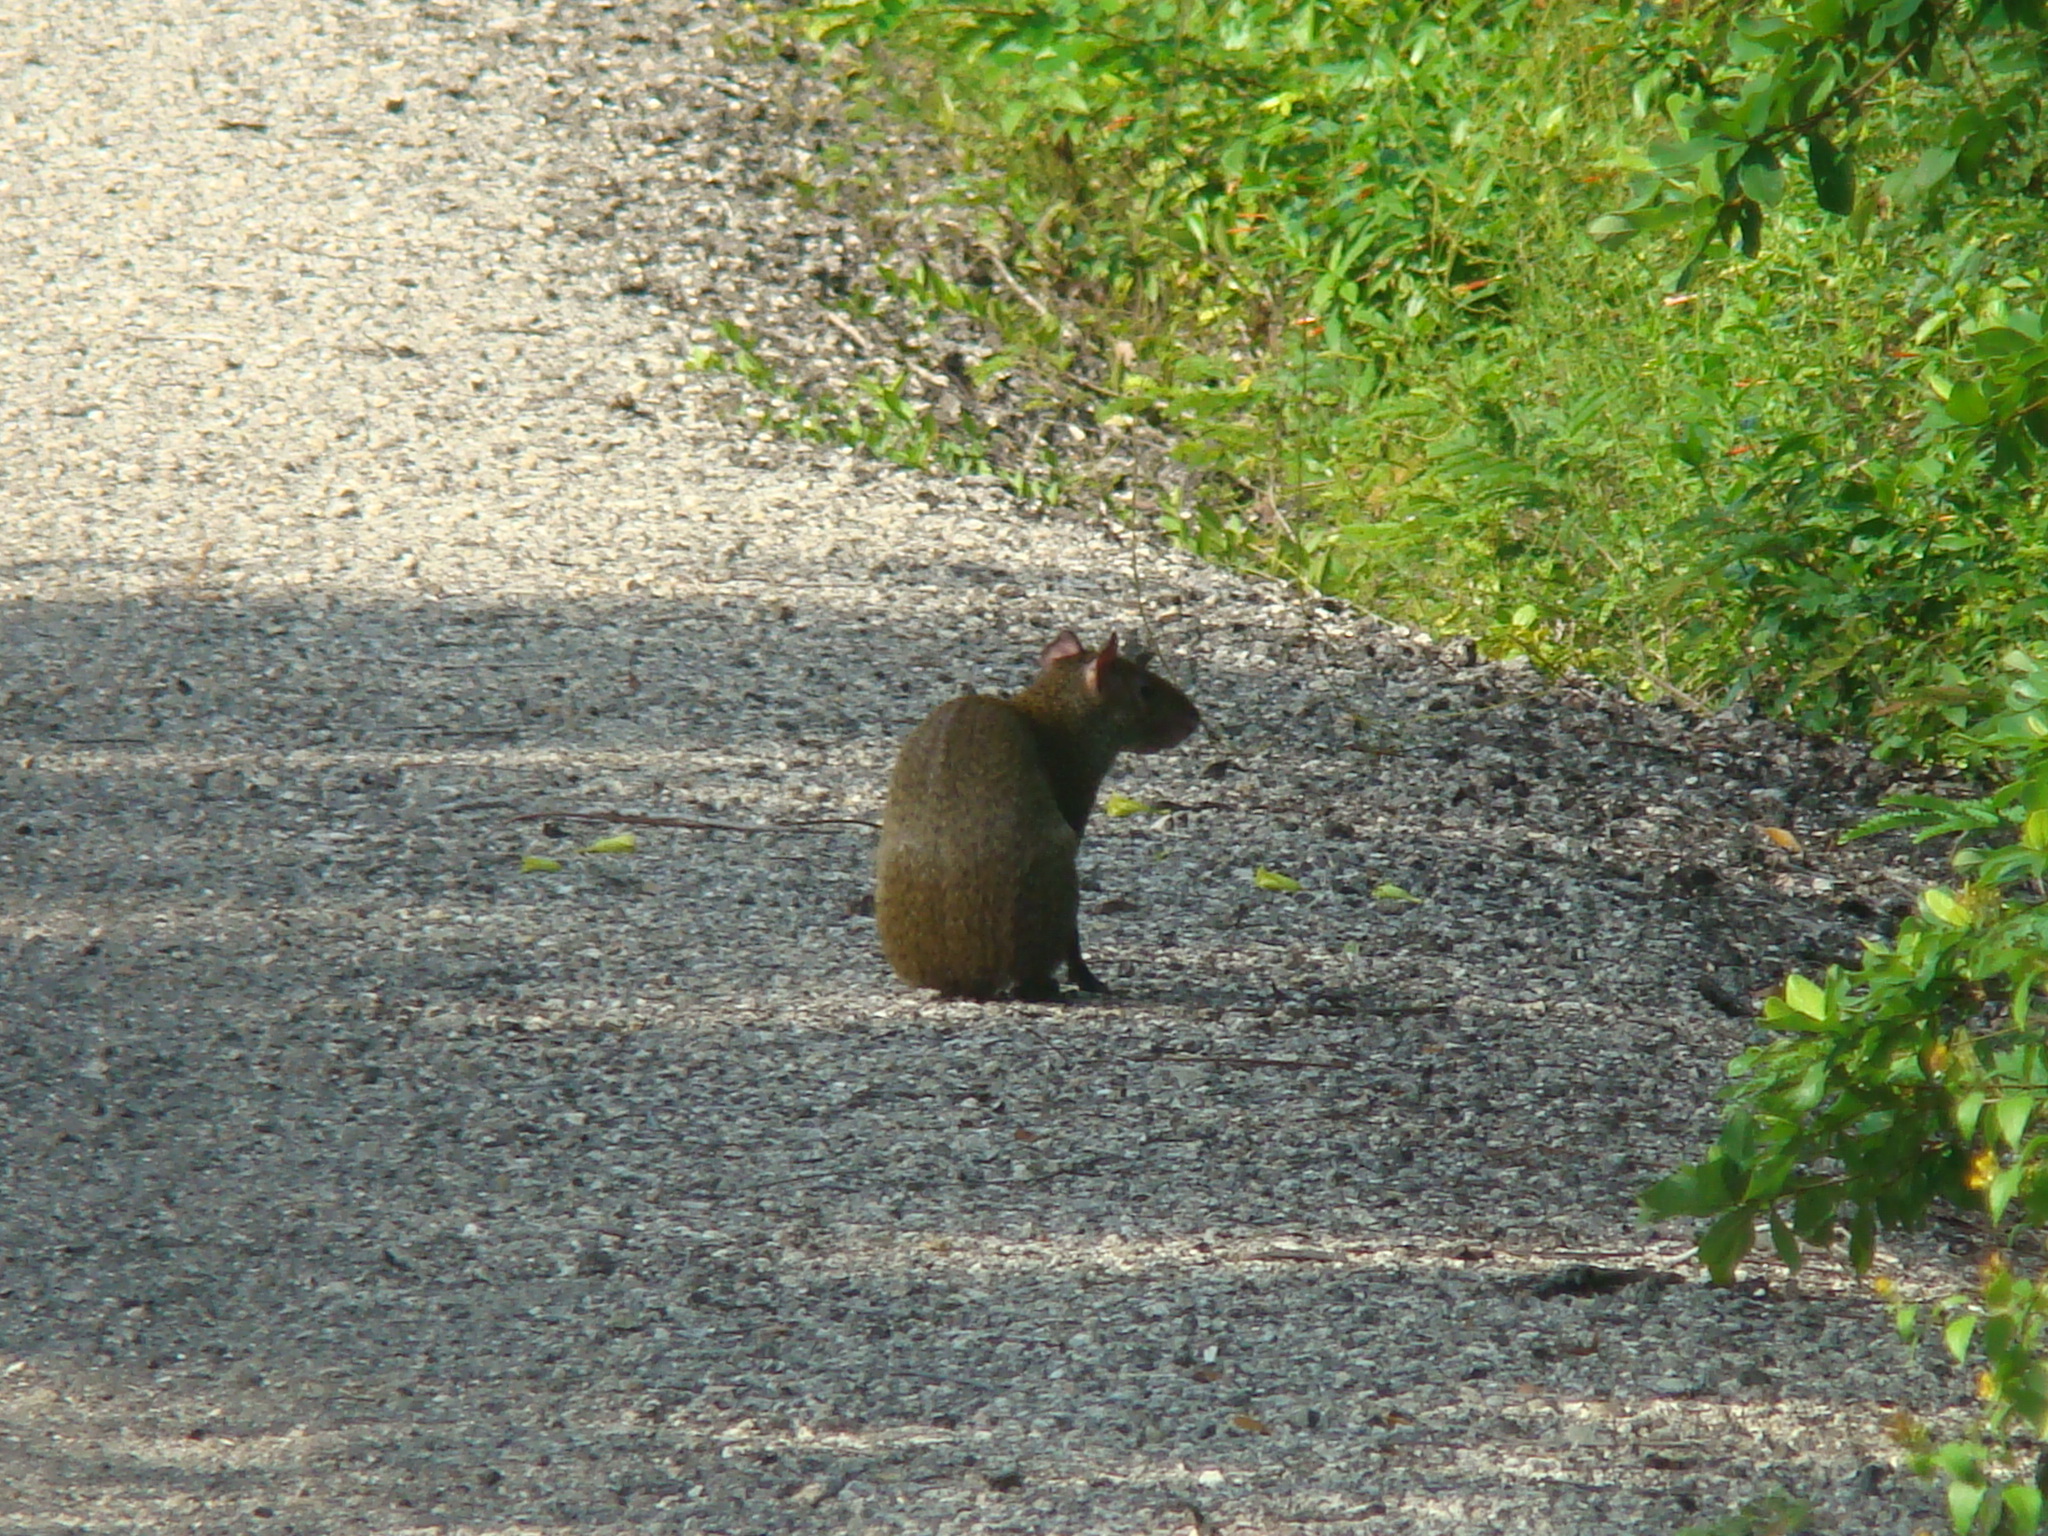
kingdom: Animalia
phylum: Chordata
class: Mammalia
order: Rodentia
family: Dasyproctidae
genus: Dasyprocta
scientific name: Dasyprocta punctata
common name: Central american agouti
